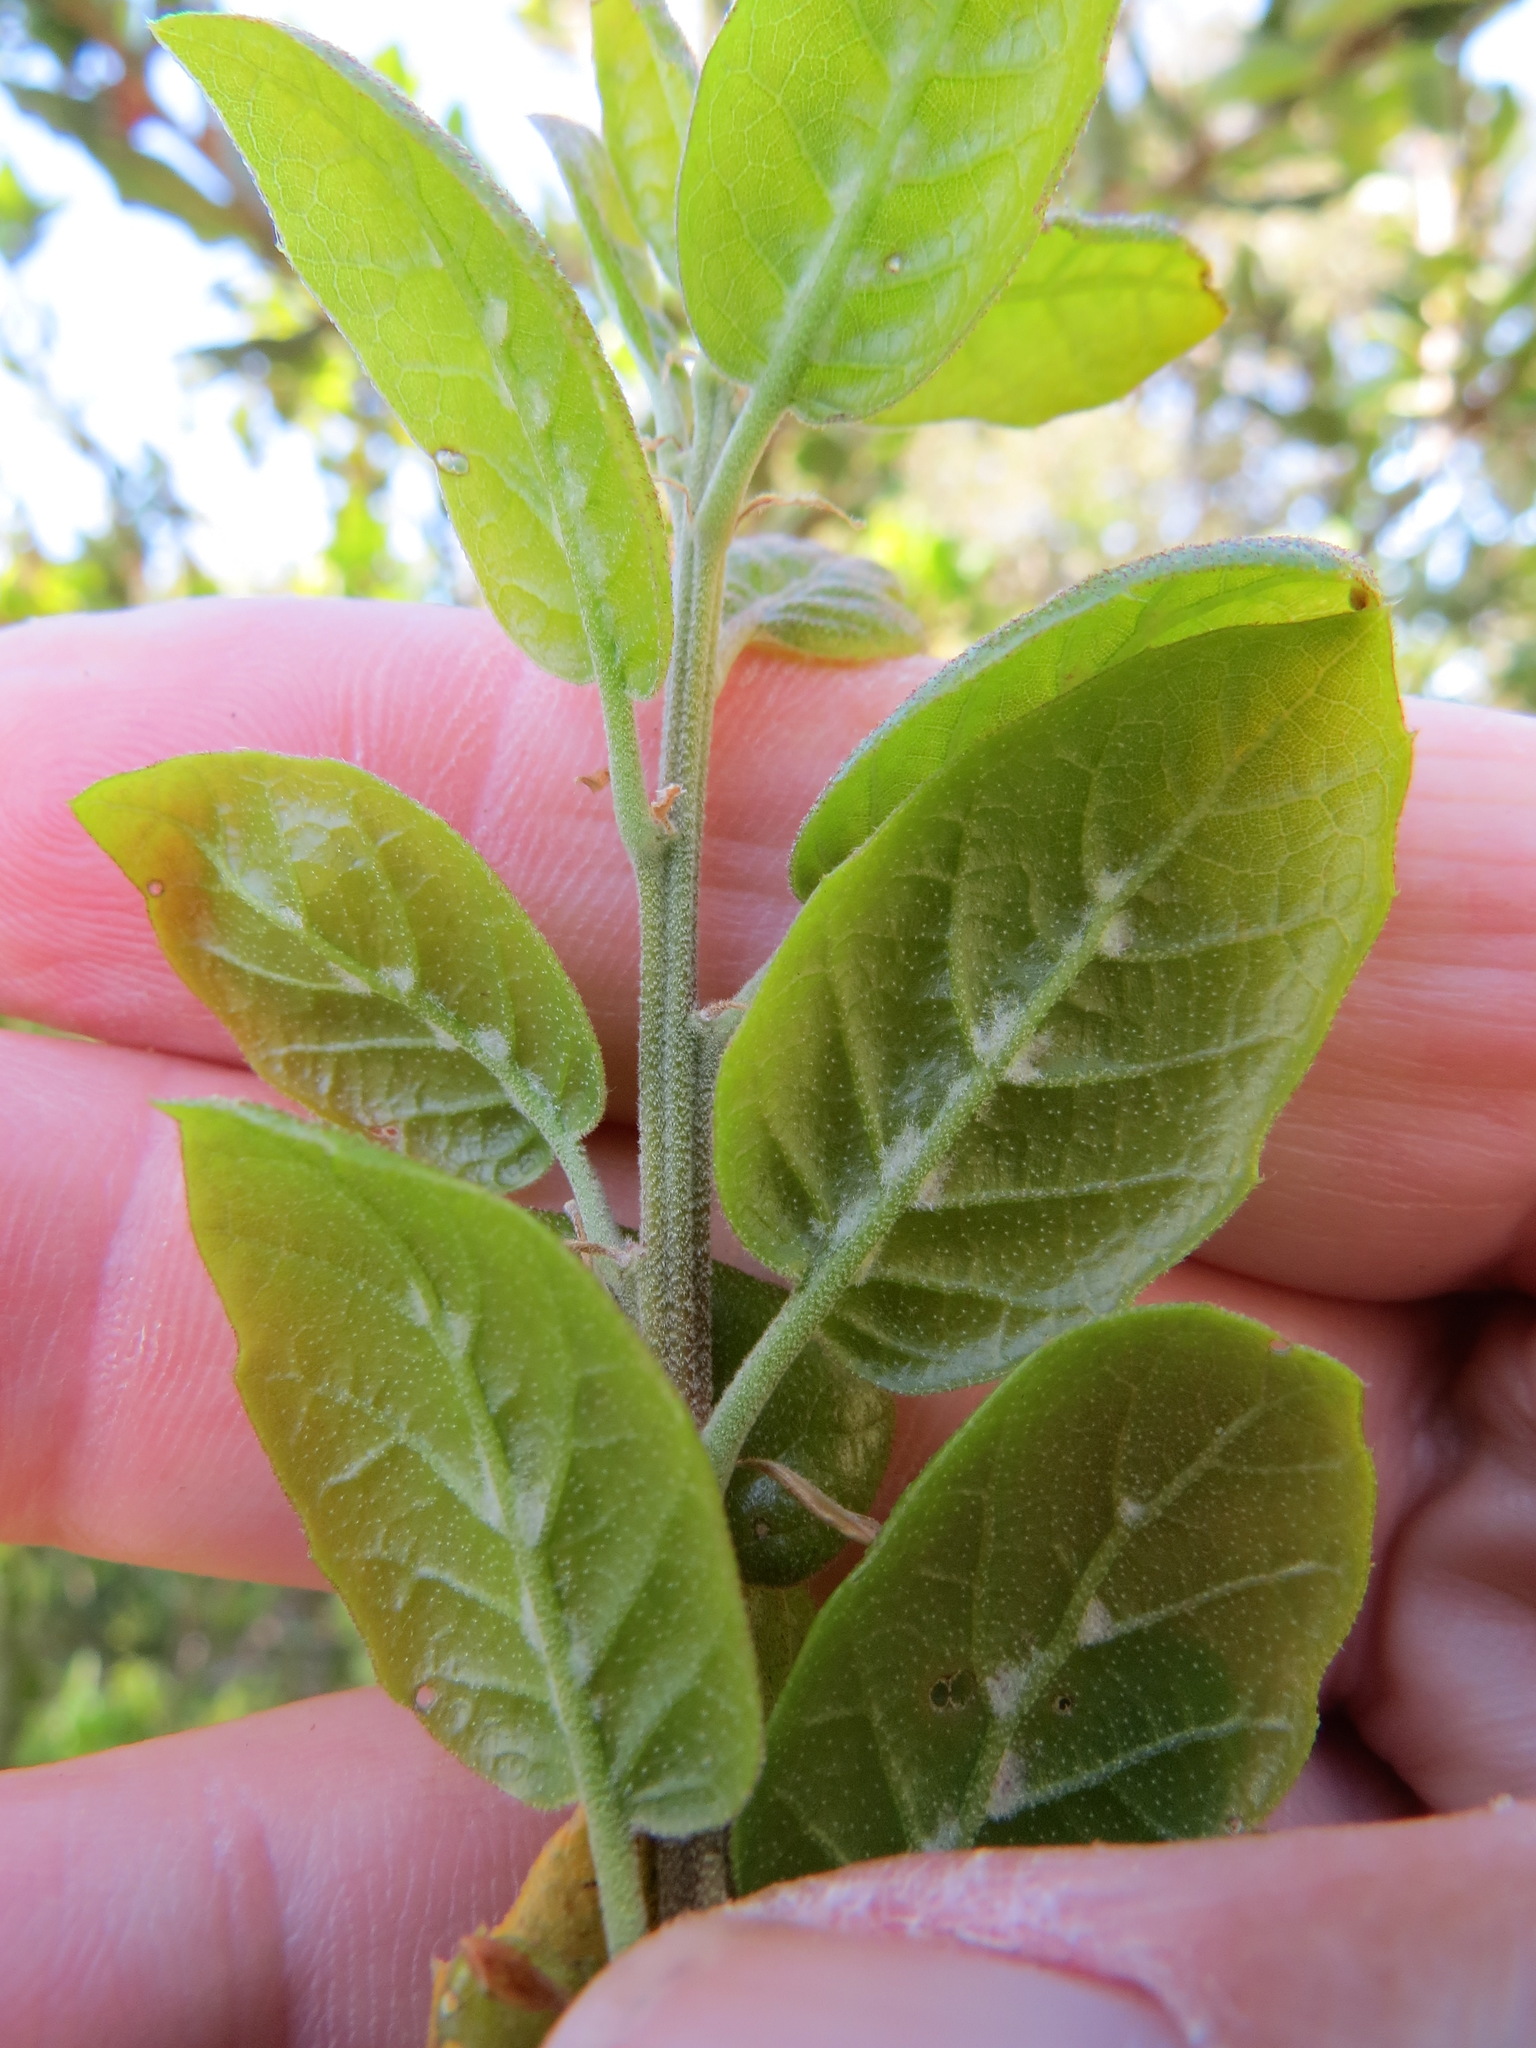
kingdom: Plantae
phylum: Tracheophyta
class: Magnoliopsida
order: Fagales
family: Fagaceae
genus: Quercus
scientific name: Quercus agrifolia
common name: California live oak
